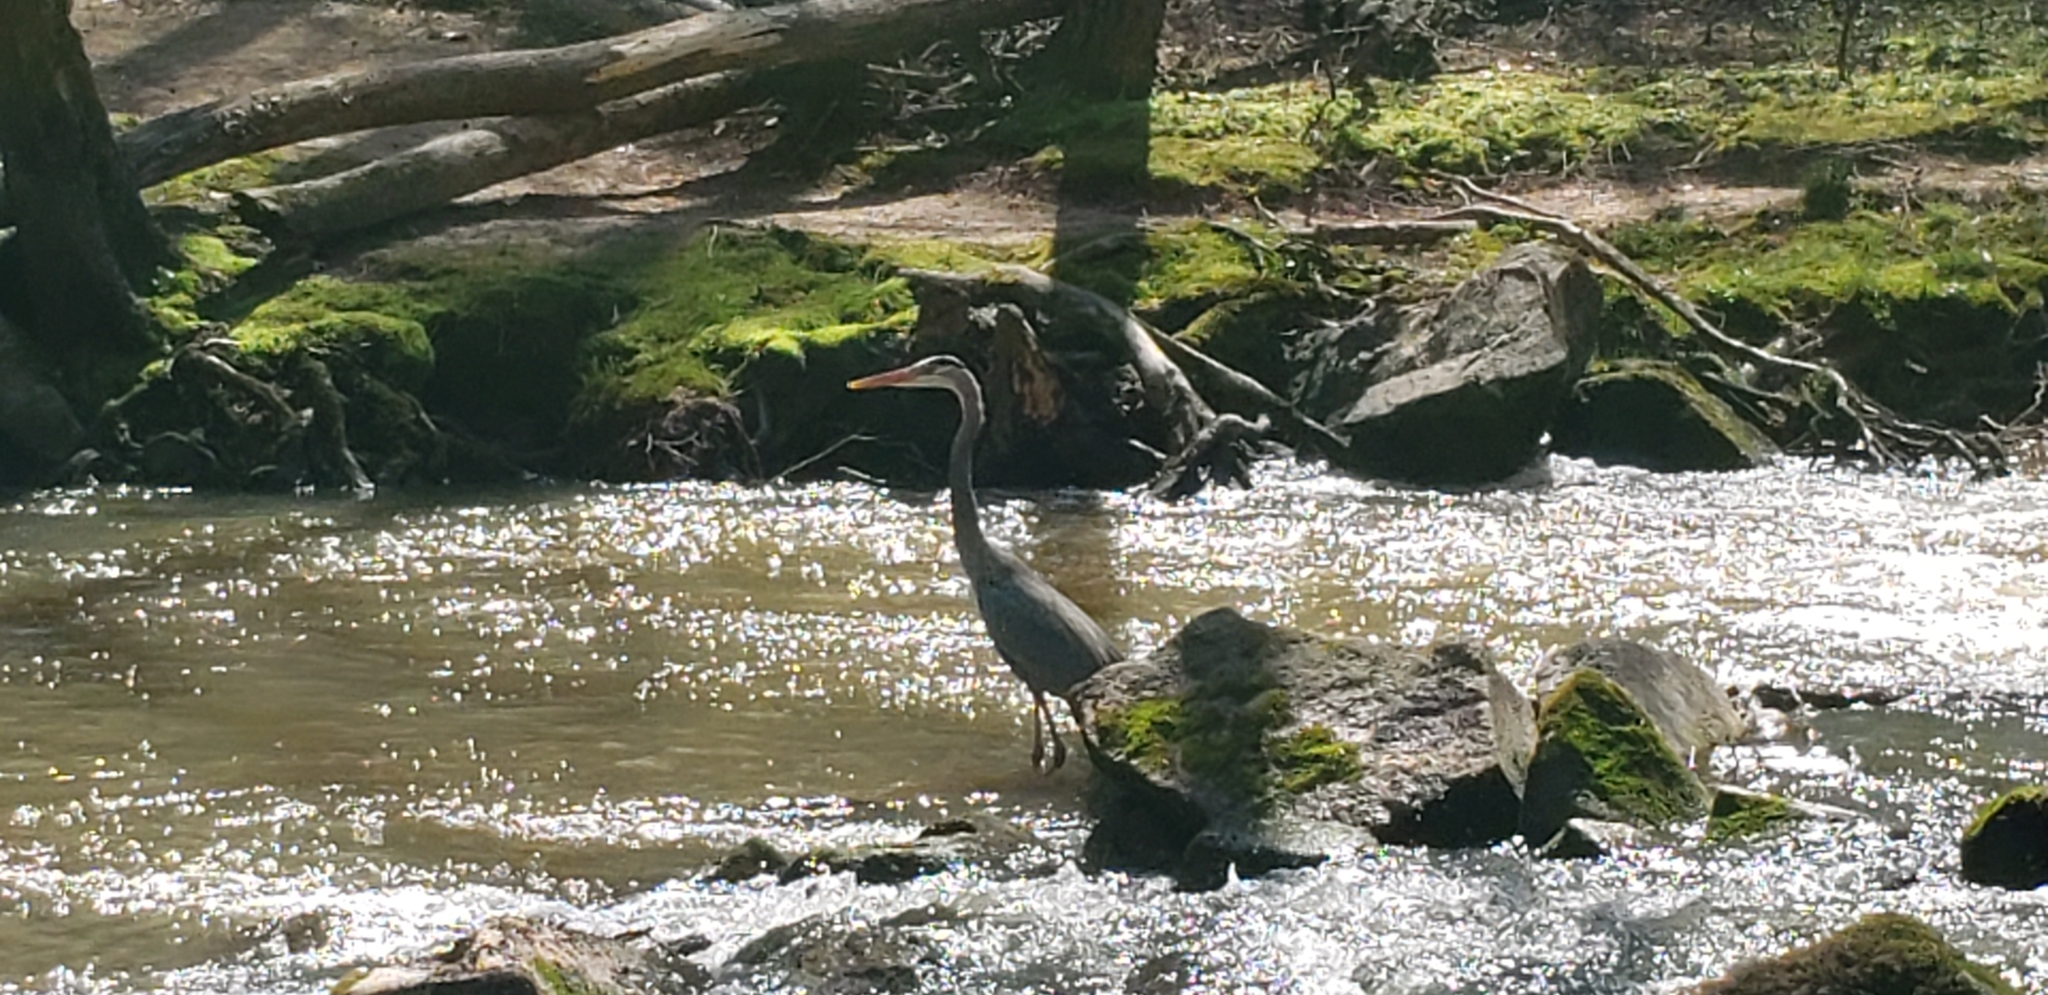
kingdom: Animalia
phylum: Chordata
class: Aves
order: Pelecaniformes
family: Ardeidae
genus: Ardea
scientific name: Ardea herodias
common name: Great blue heron
